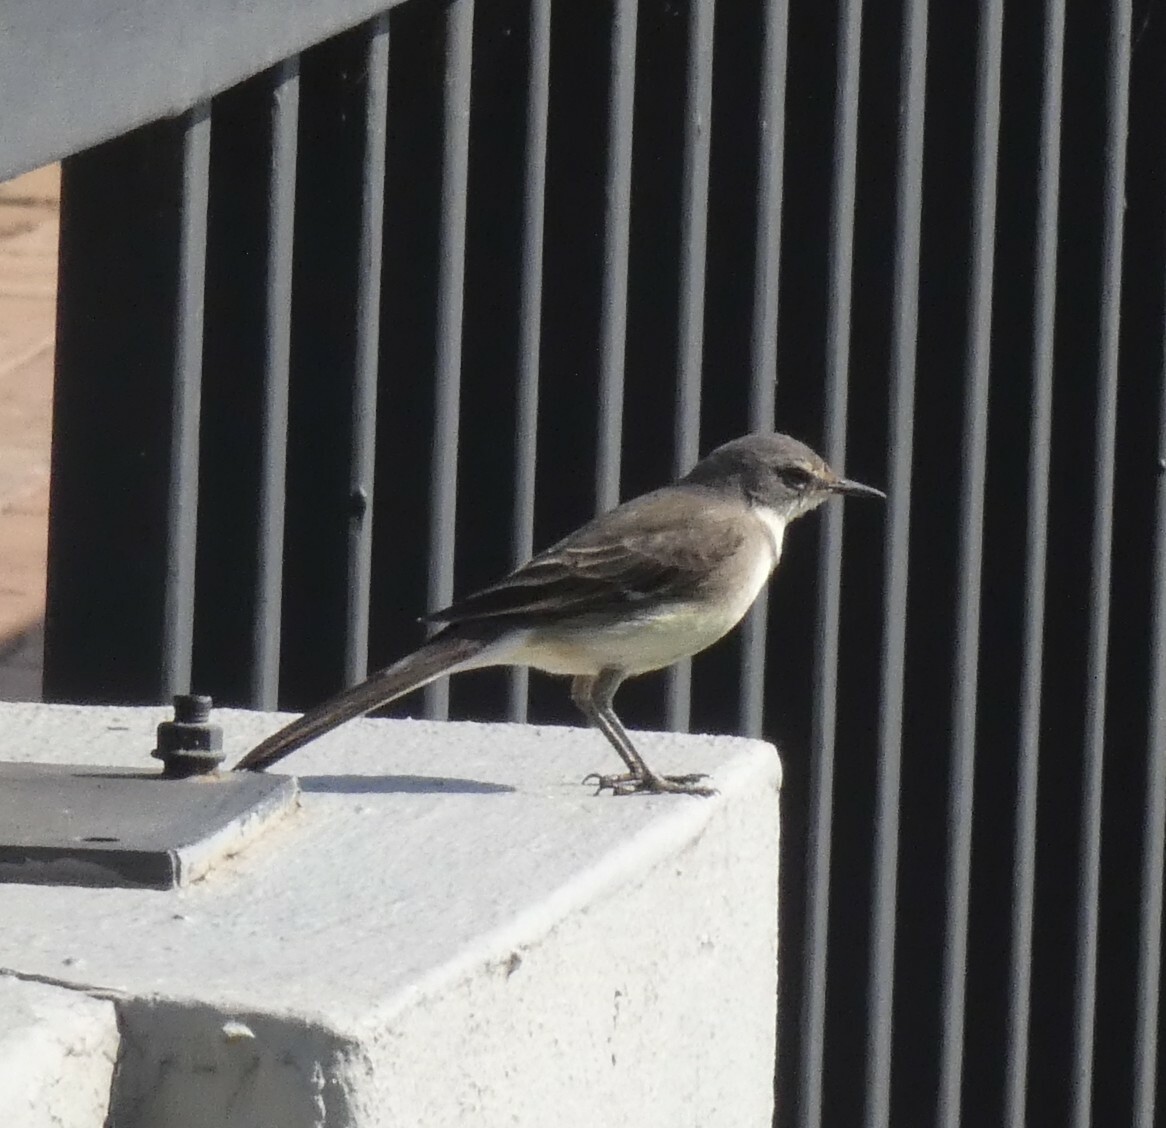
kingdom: Animalia
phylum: Chordata
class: Aves
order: Passeriformes
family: Motacillidae
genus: Motacilla
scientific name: Motacilla capensis
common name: Cape wagtail
